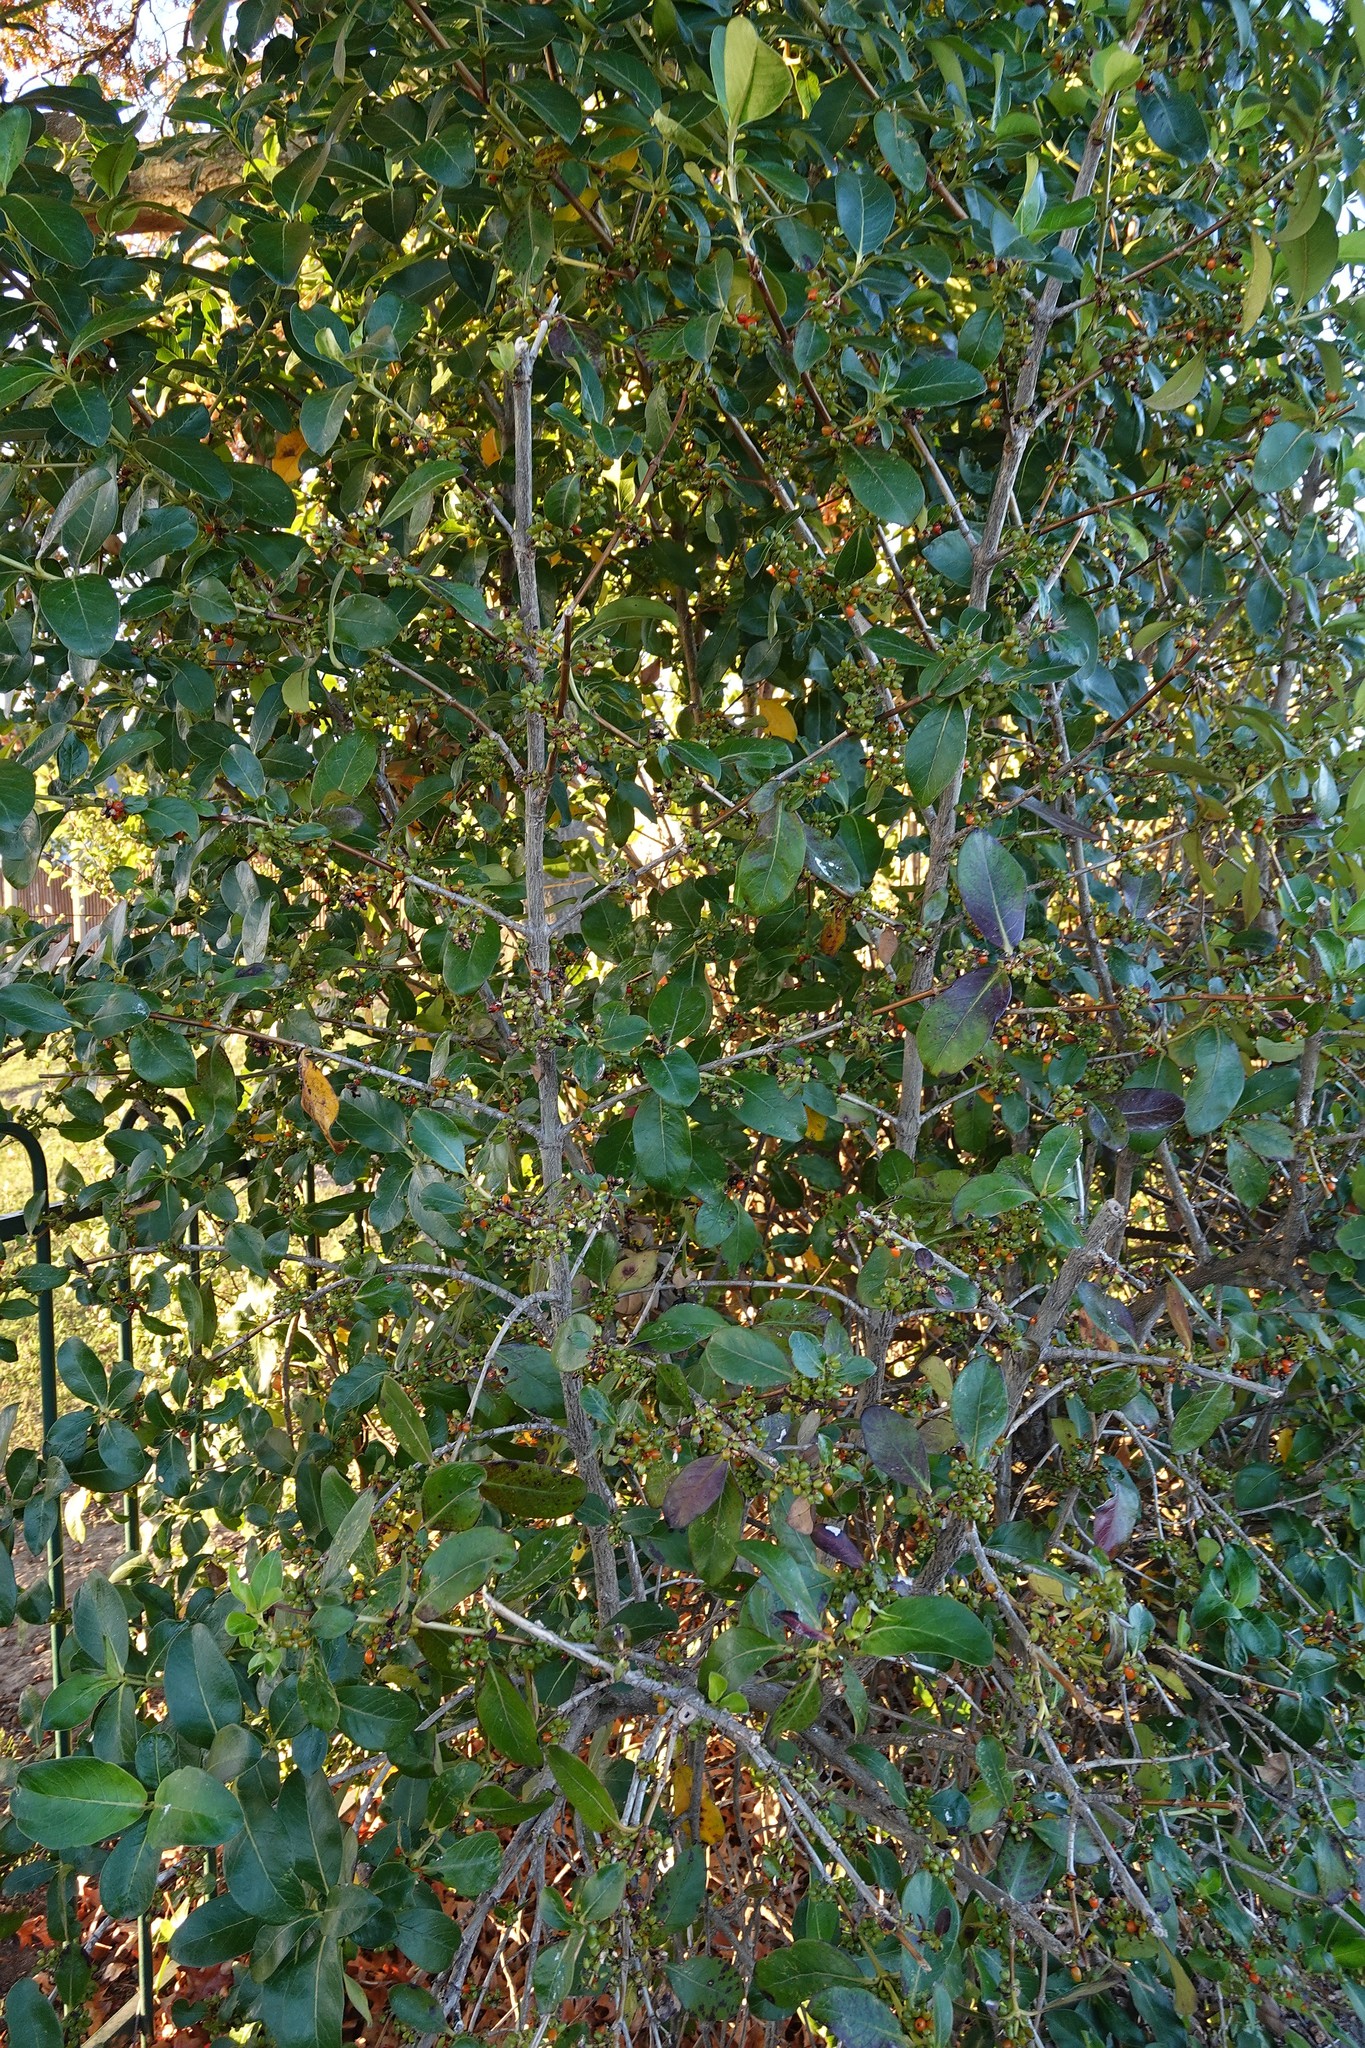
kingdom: Plantae
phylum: Tracheophyta
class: Magnoliopsida
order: Gentianales
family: Rubiaceae
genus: Coprosma
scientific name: Coprosma robusta
